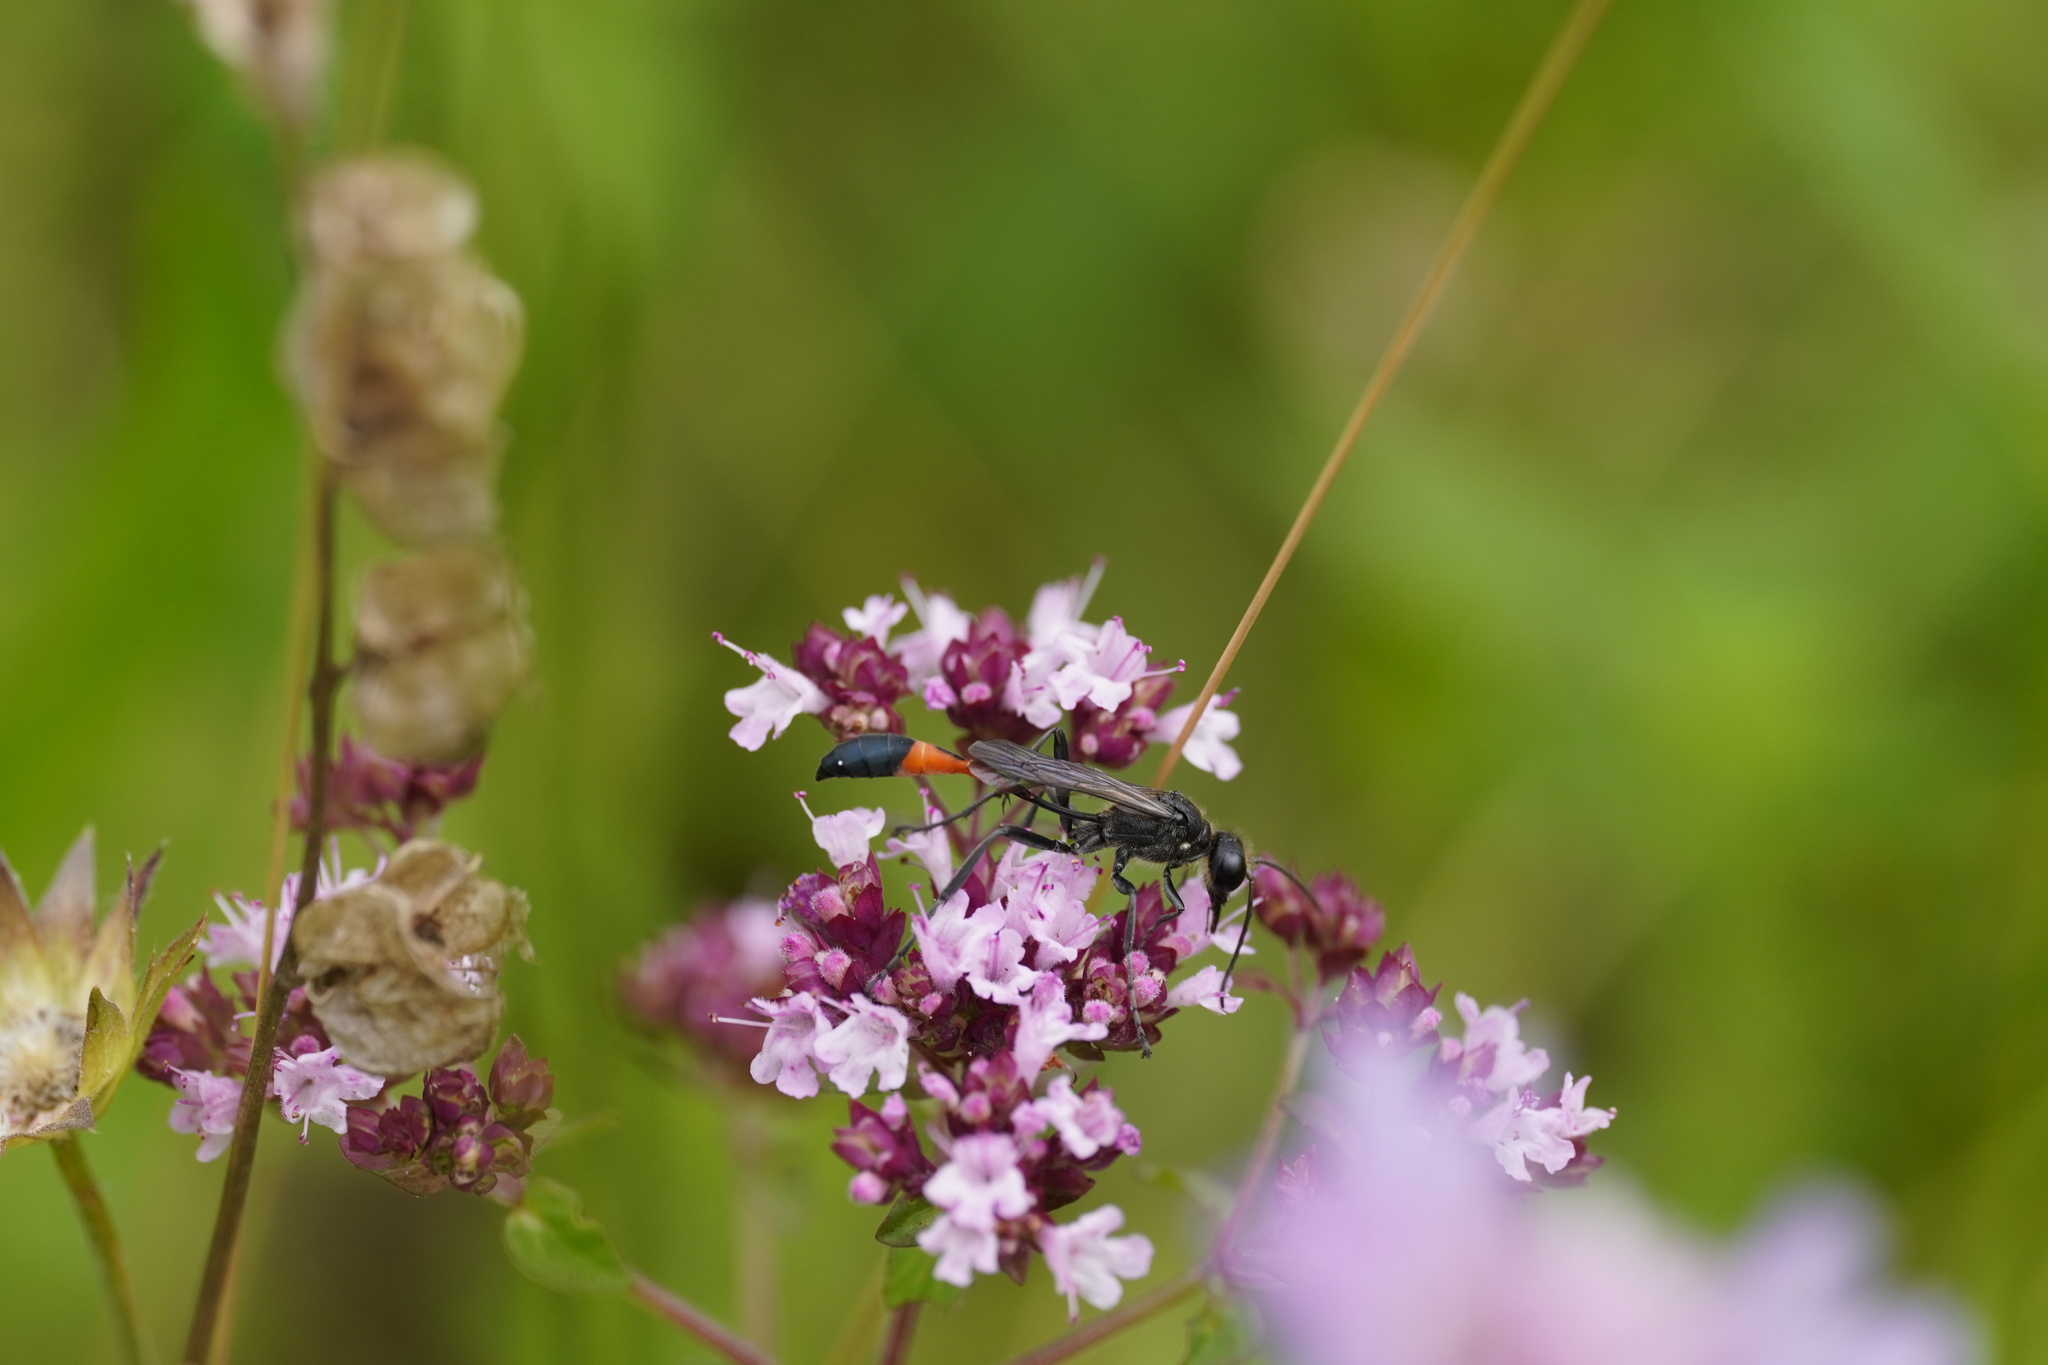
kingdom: Animalia
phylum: Arthropoda
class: Insecta
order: Hymenoptera
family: Sphecidae
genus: Ammophila
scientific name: Ammophila sabulosa
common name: Red banded sand wasp
